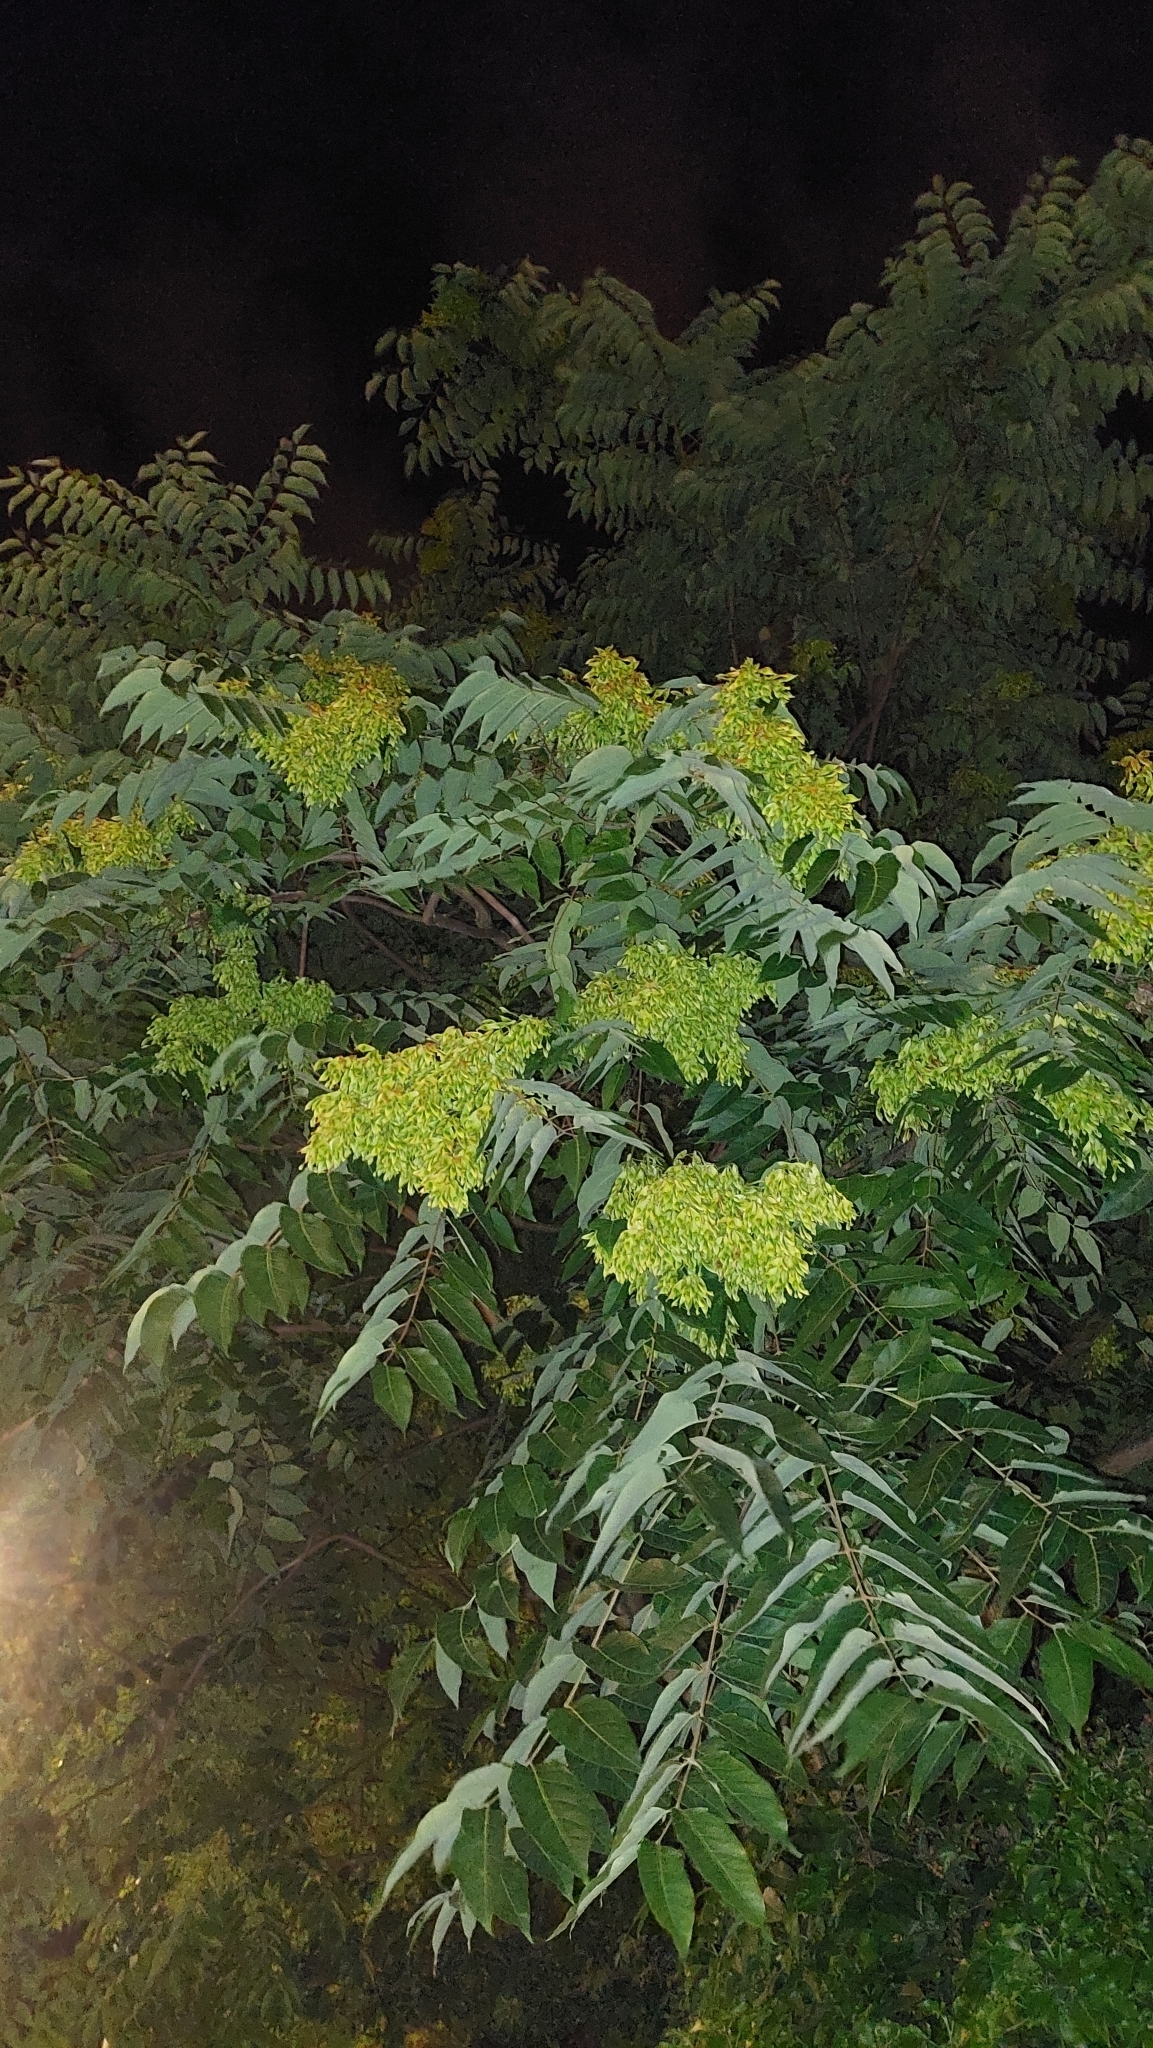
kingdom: Plantae
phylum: Tracheophyta
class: Magnoliopsida
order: Sapindales
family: Simaroubaceae
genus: Ailanthus
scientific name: Ailanthus altissima
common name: Tree-of-heaven
